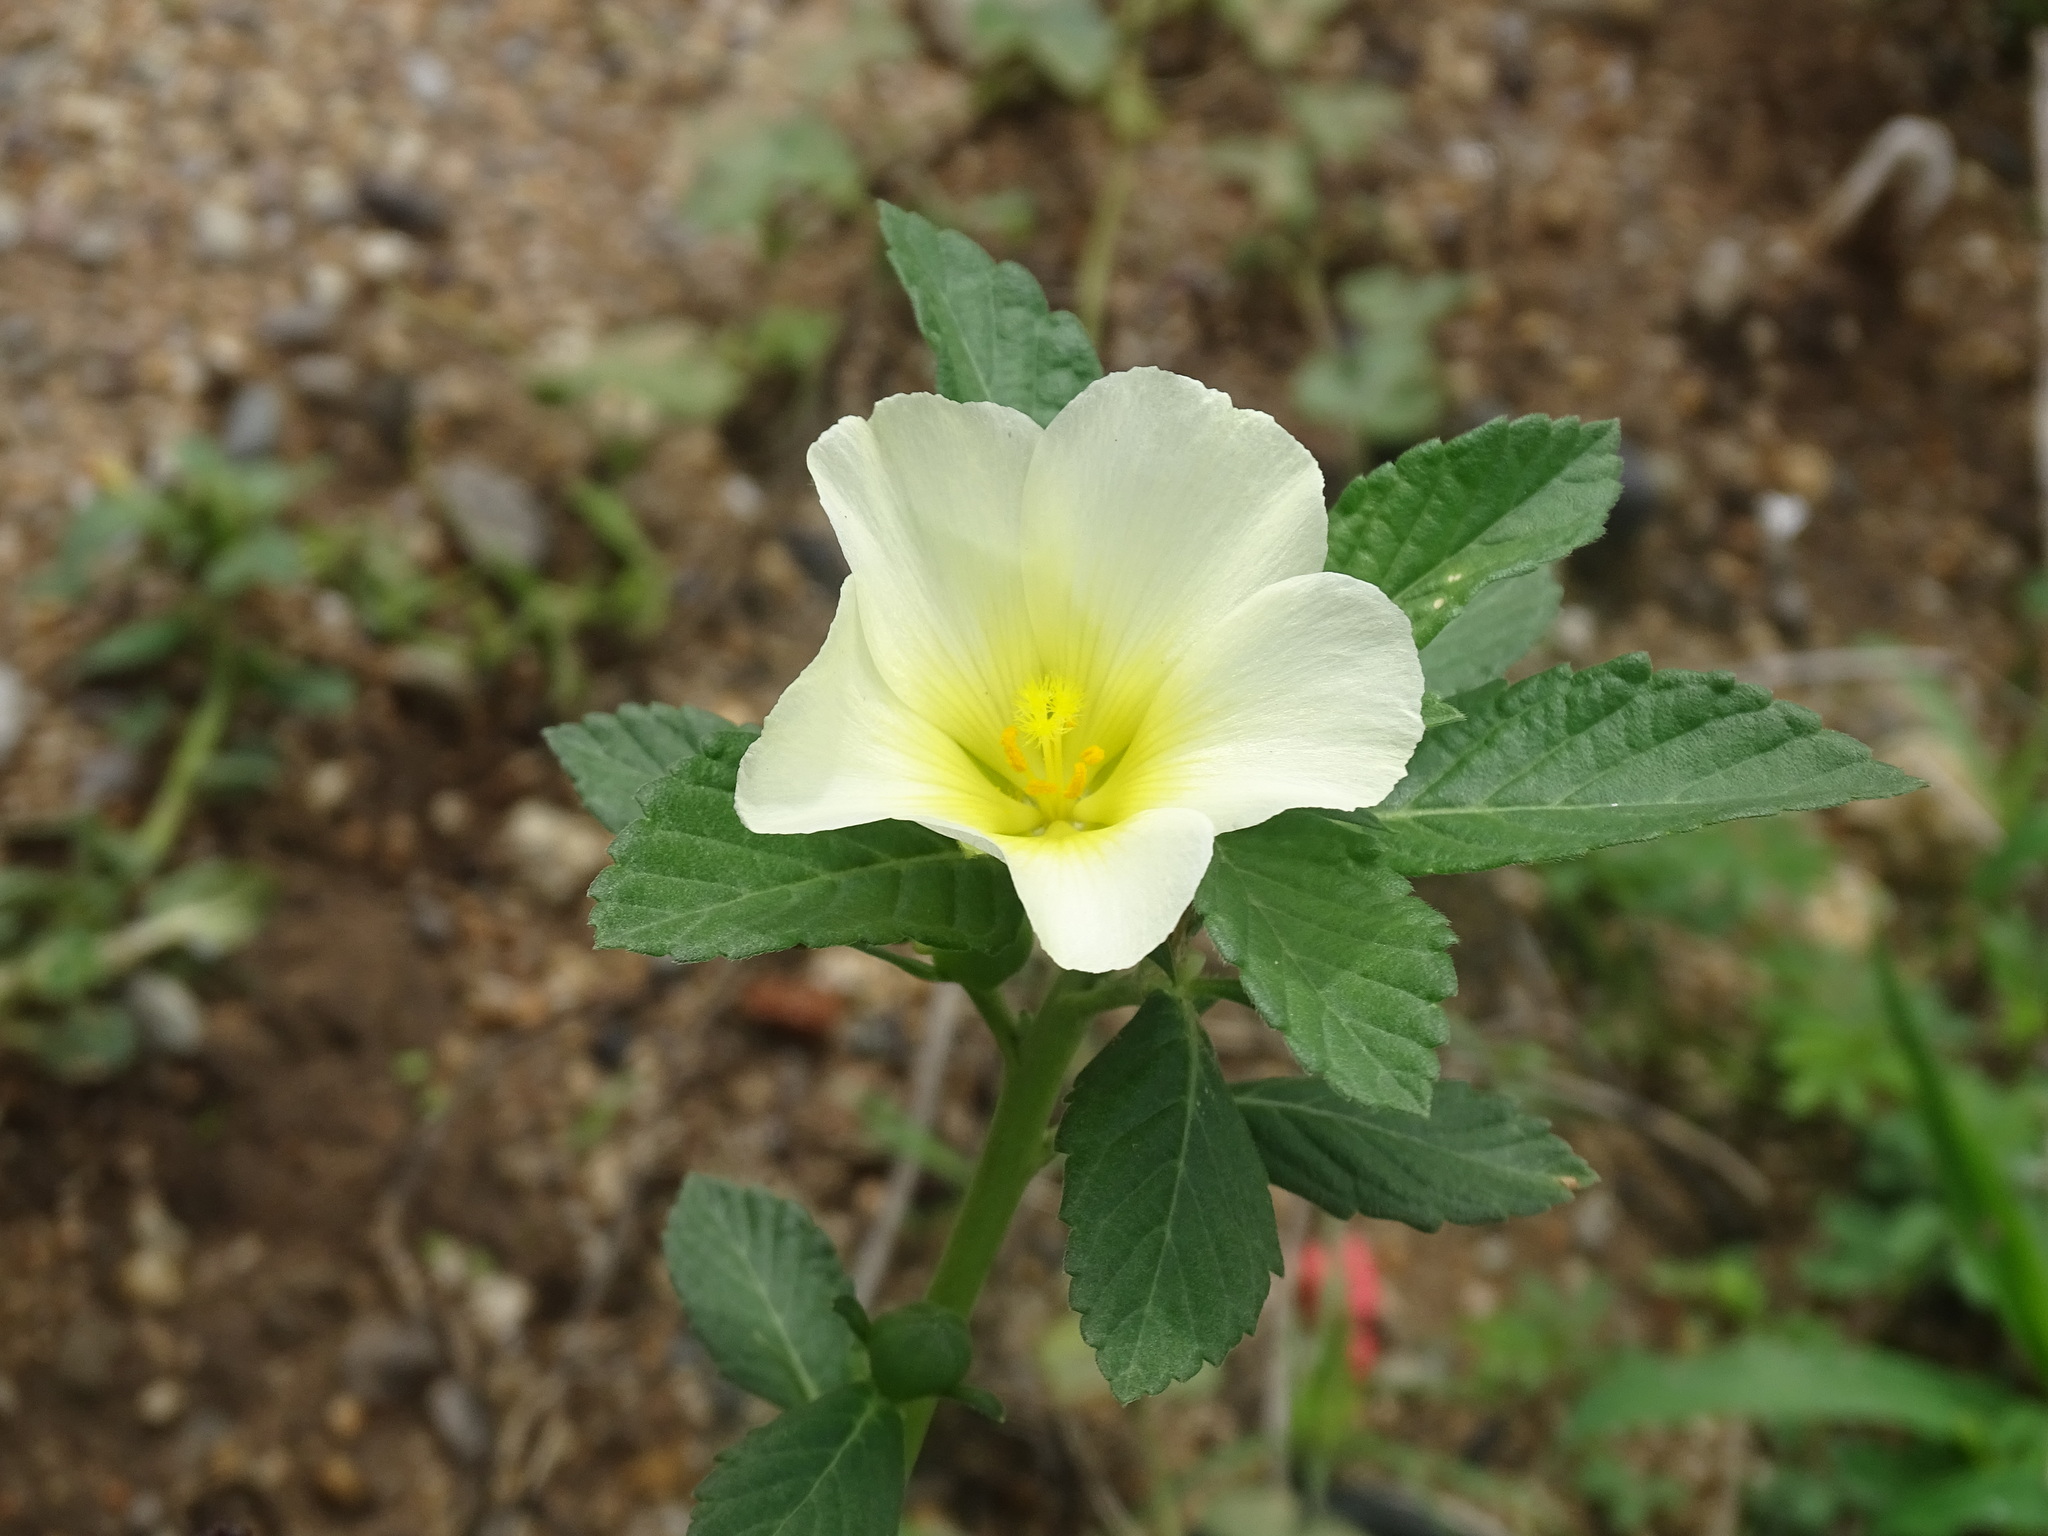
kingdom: Plantae
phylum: Tracheophyta
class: Magnoliopsida
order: Malpighiales
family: Turneraceae
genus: Turnera
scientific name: Turnera velutina
